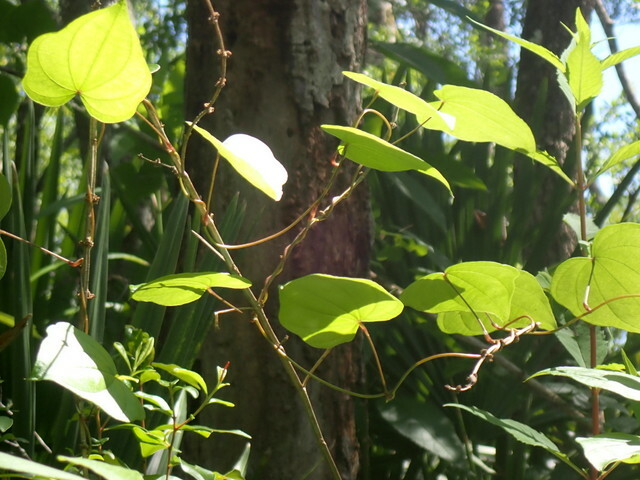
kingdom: Plantae
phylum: Tracheophyta
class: Liliopsida
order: Dioscoreales
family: Dioscoreaceae
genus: Dioscorea
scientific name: Dioscorea bulbifera
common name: Air yam
